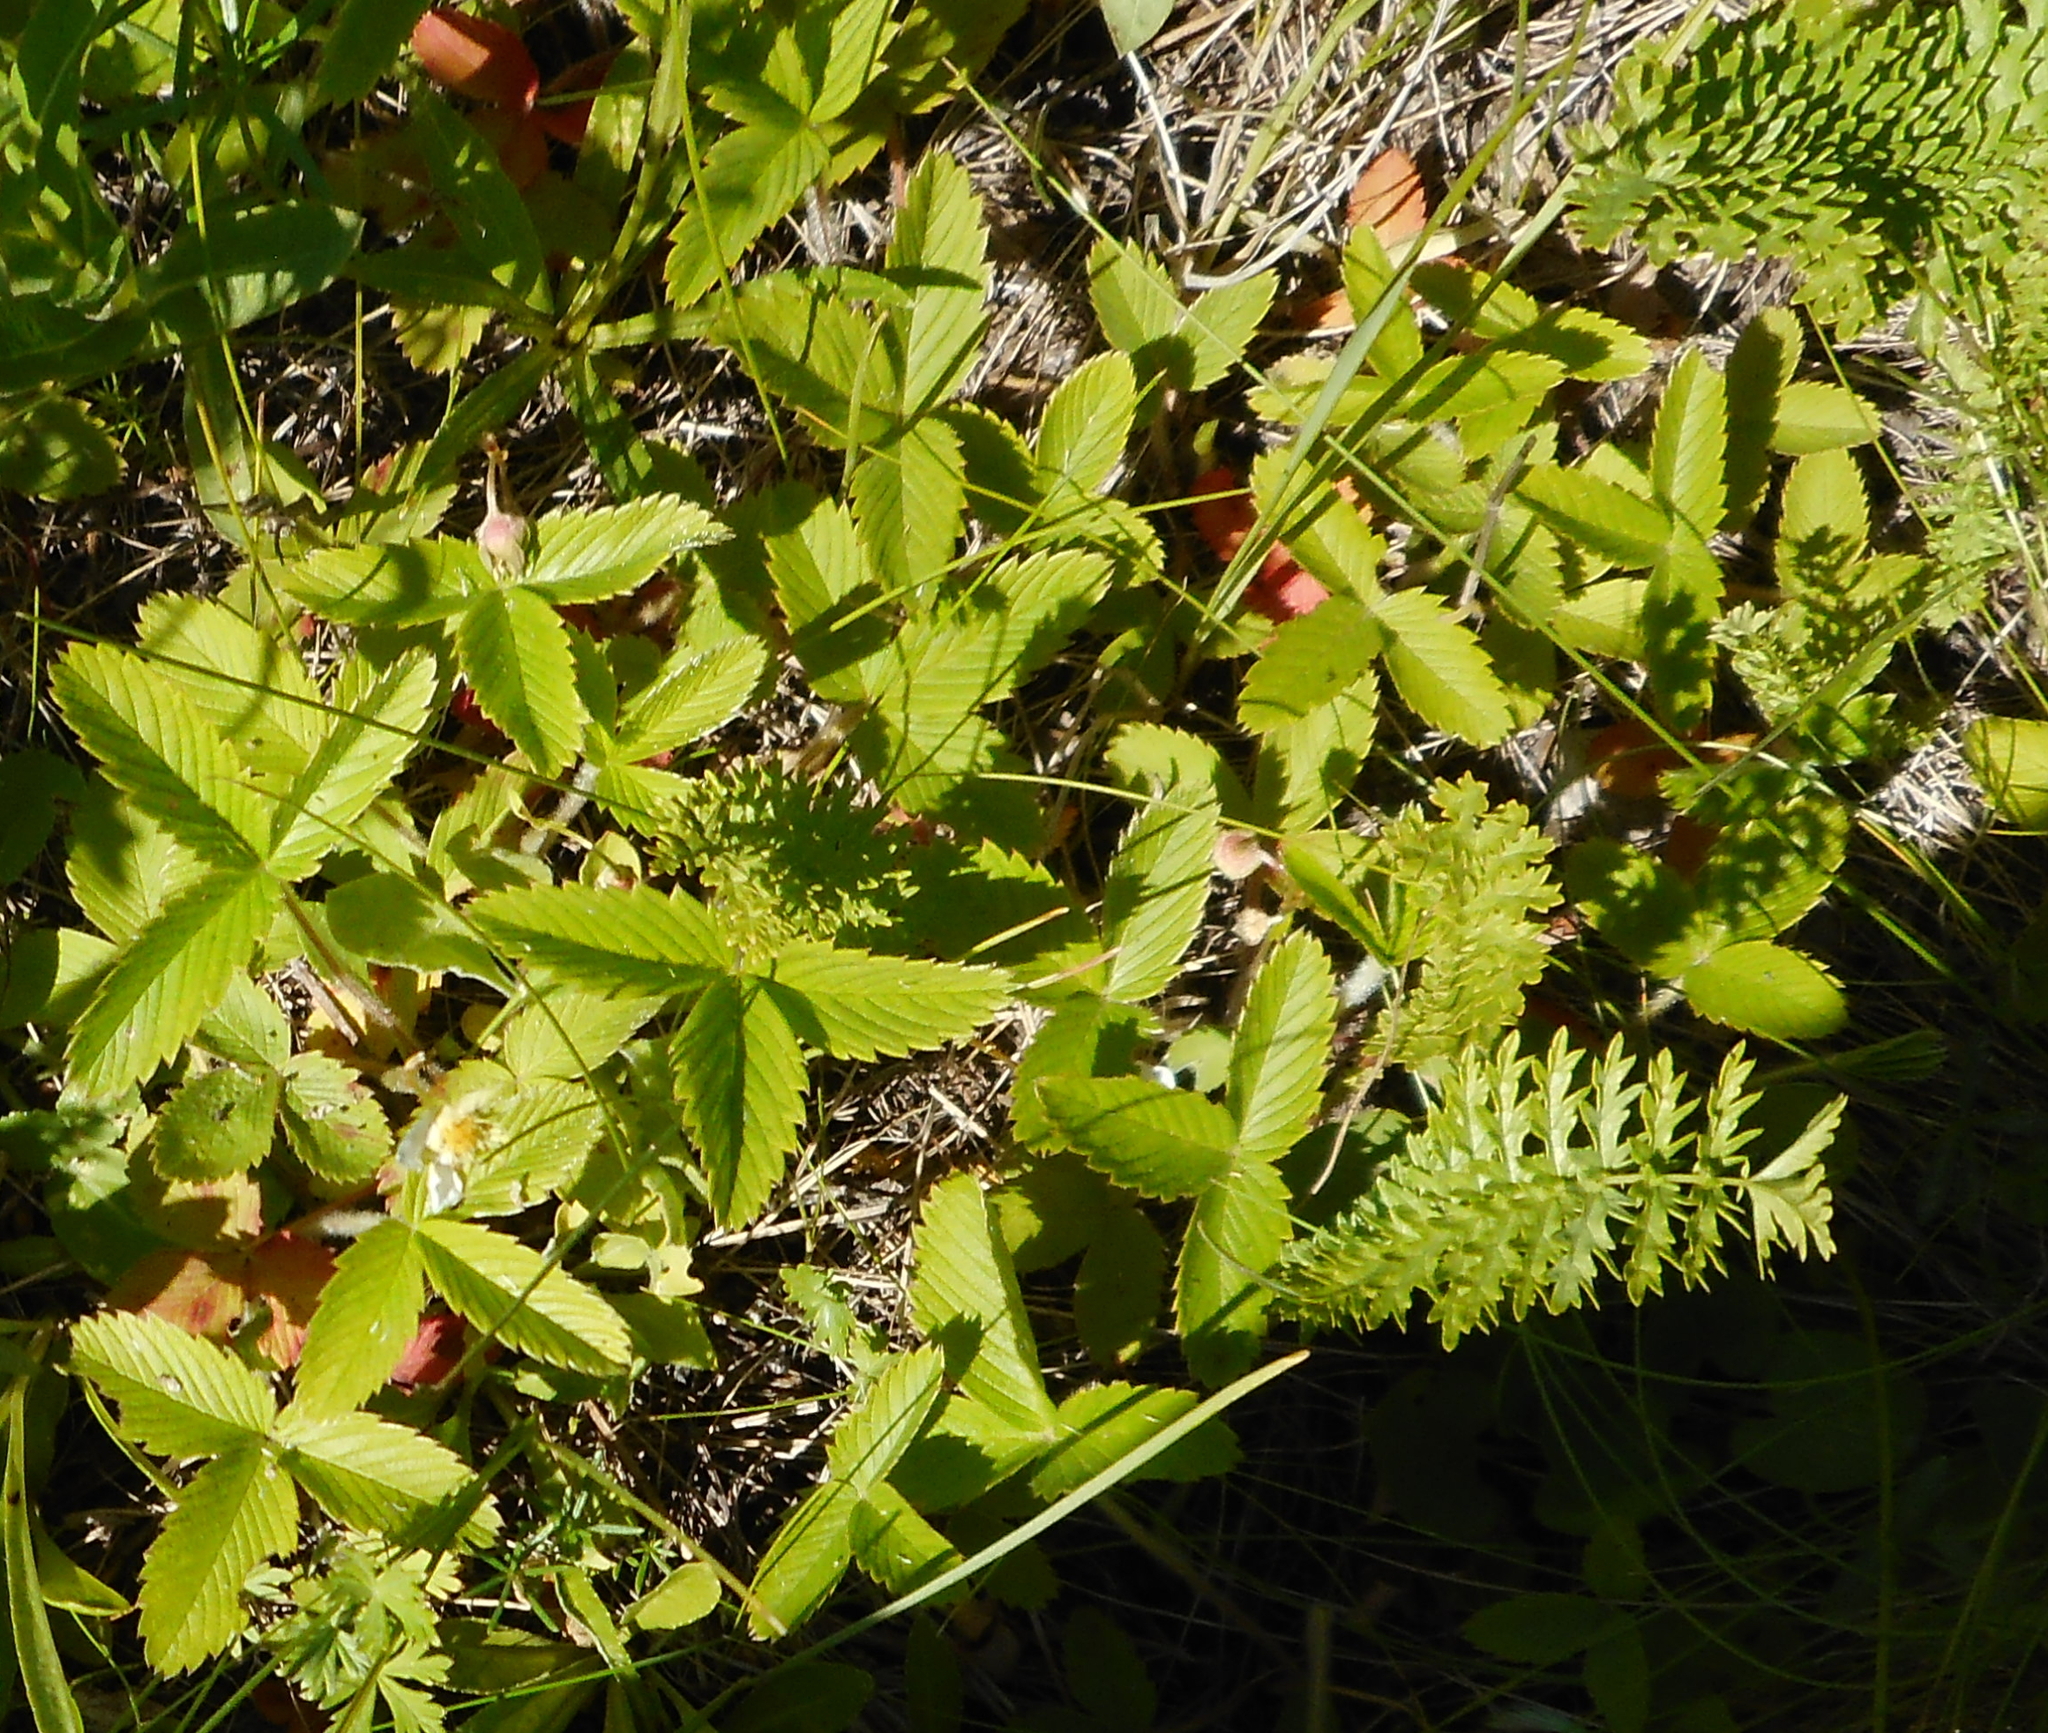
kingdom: Plantae
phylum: Tracheophyta
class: Magnoliopsida
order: Rosales
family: Rosaceae
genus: Fragaria
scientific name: Fragaria viridis
